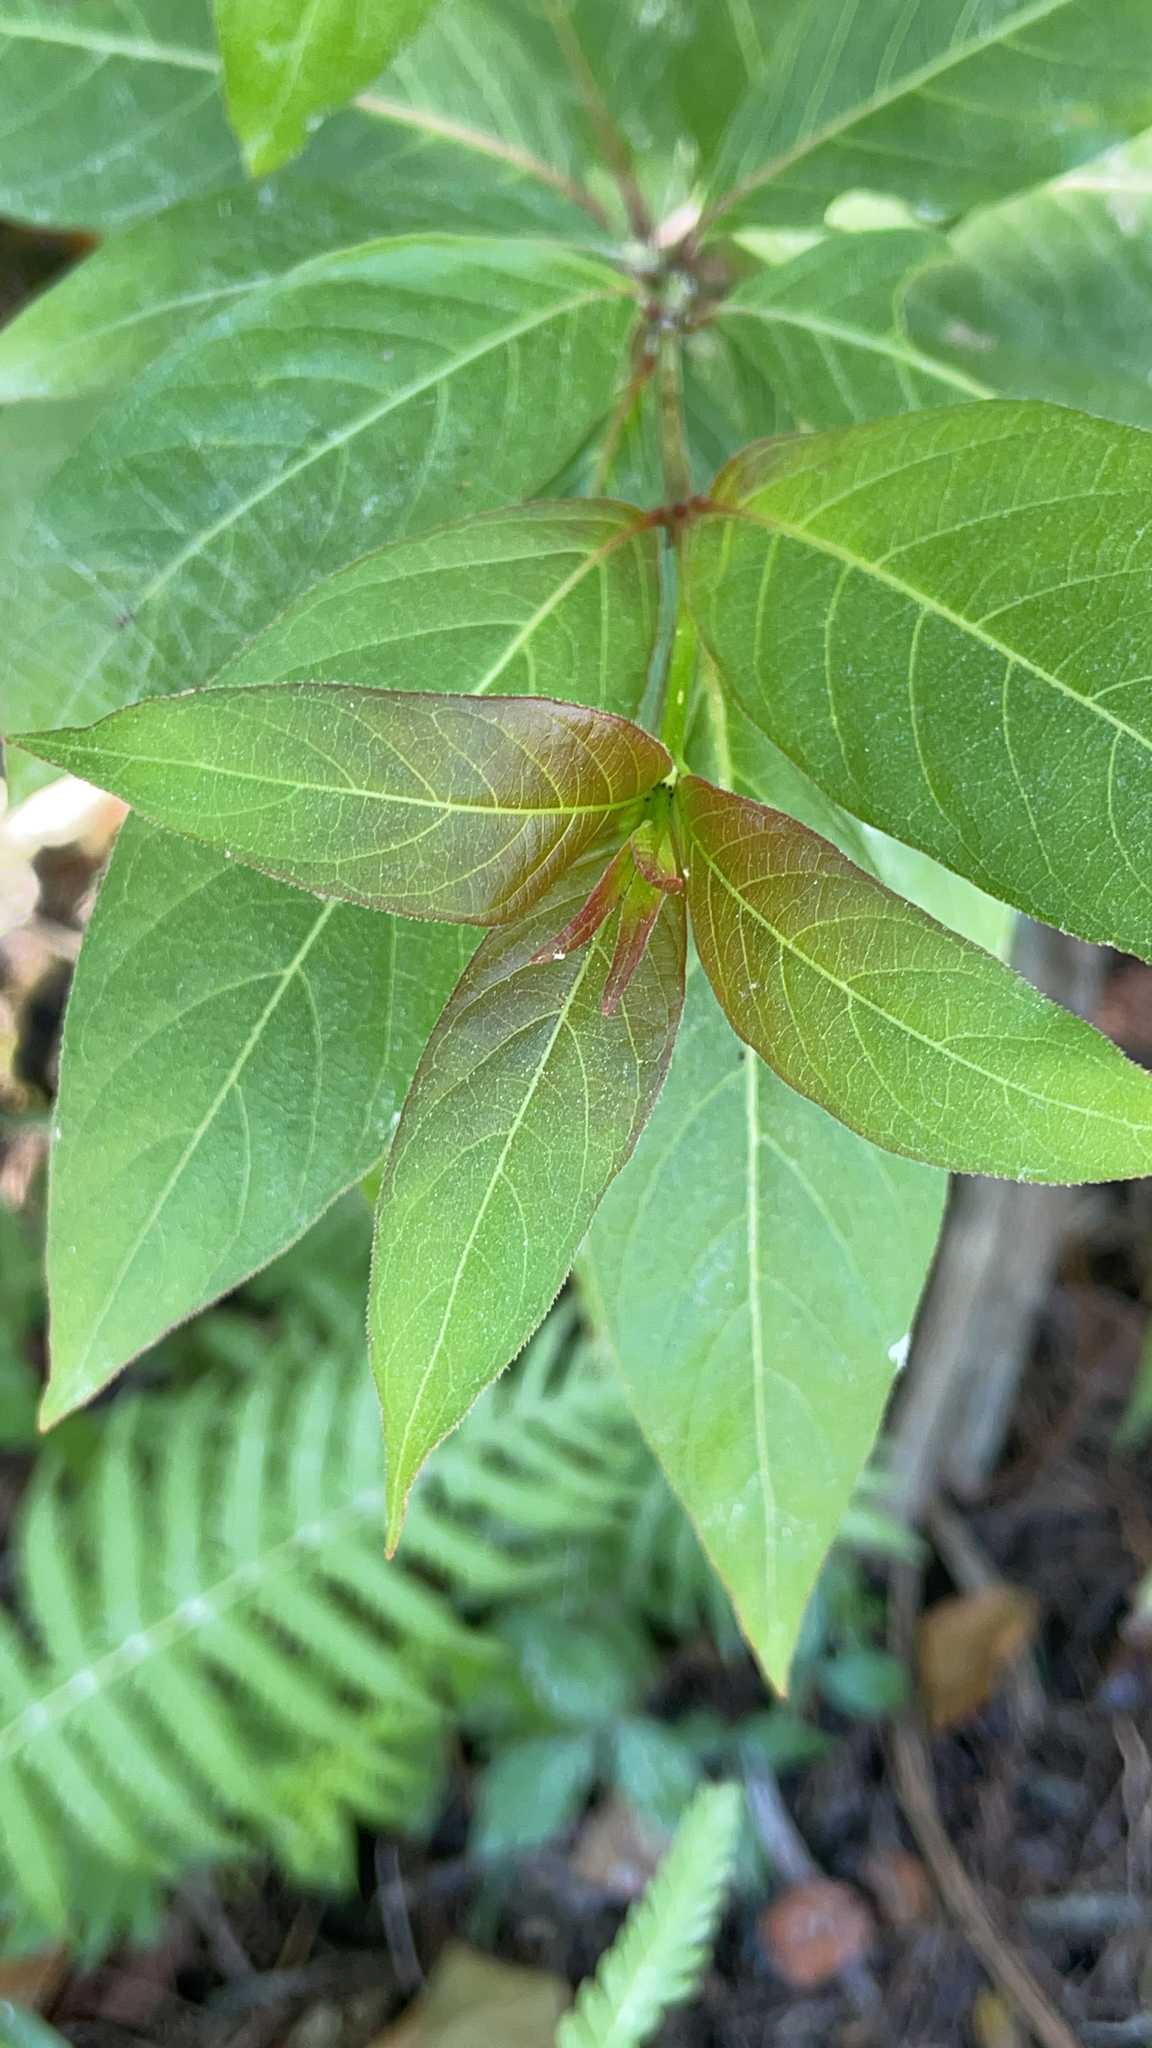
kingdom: Plantae
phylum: Tracheophyta
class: Magnoliopsida
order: Gentianales
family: Rubiaceae
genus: Cephalanthus
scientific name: Cephalanthus occidentalis
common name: Button-willow
